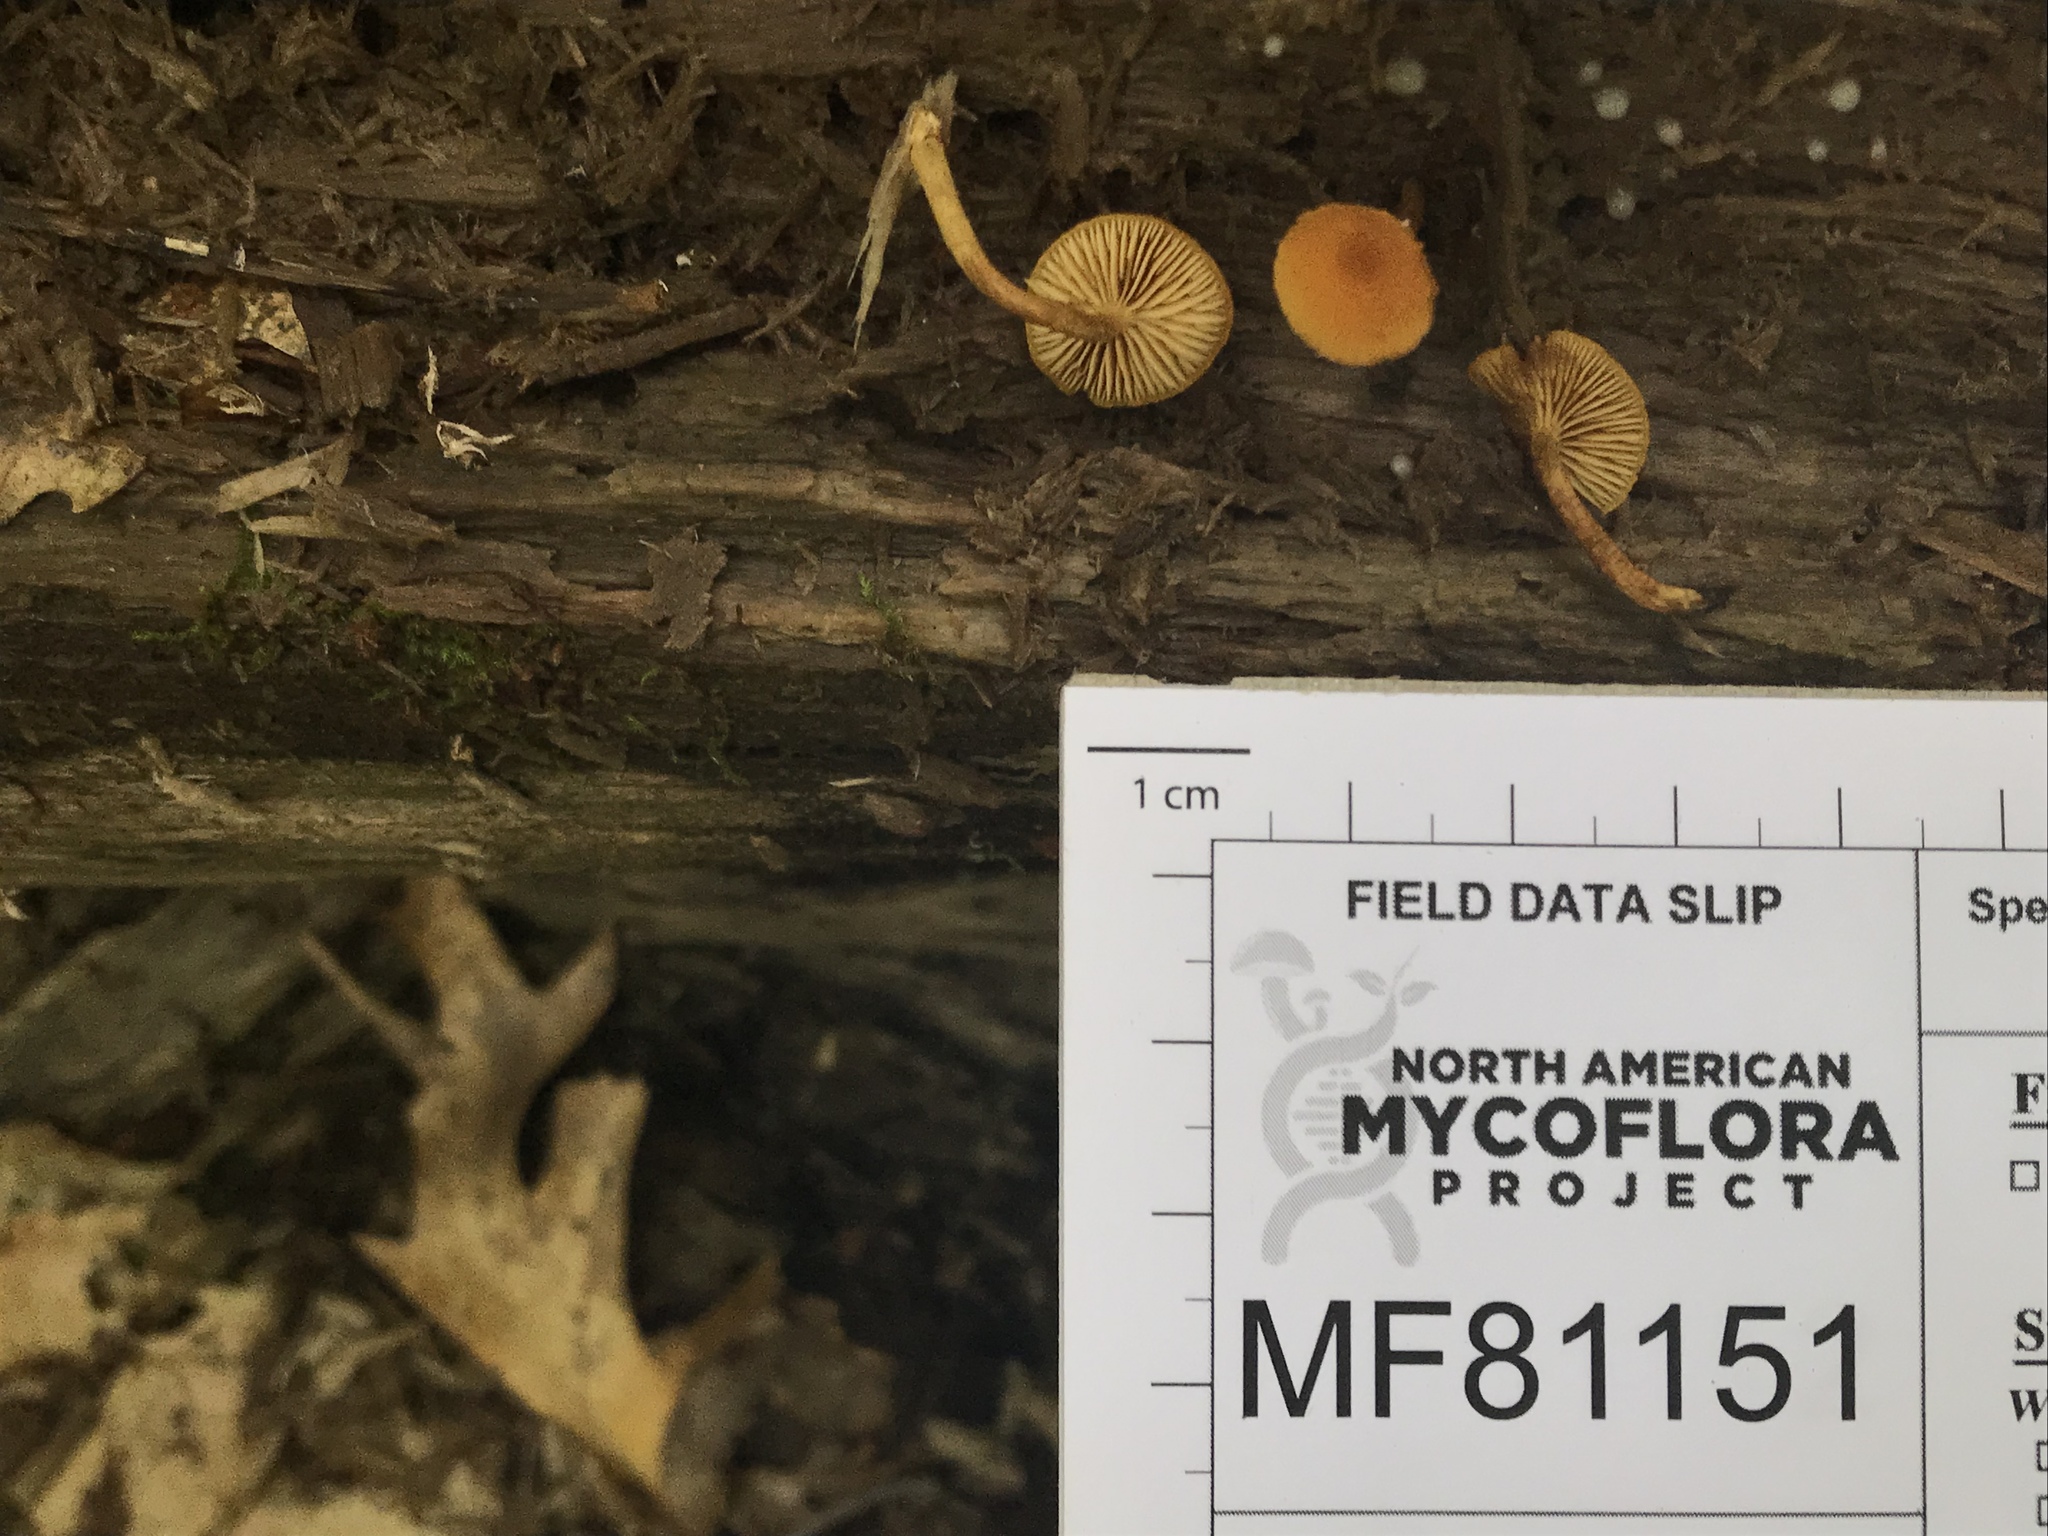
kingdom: Fungi
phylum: Basidiomycota
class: Agaricomycetes
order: Agaricales
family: Tubariaceae
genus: Phaeomarasmius
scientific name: Phaeomarasmius proximans
